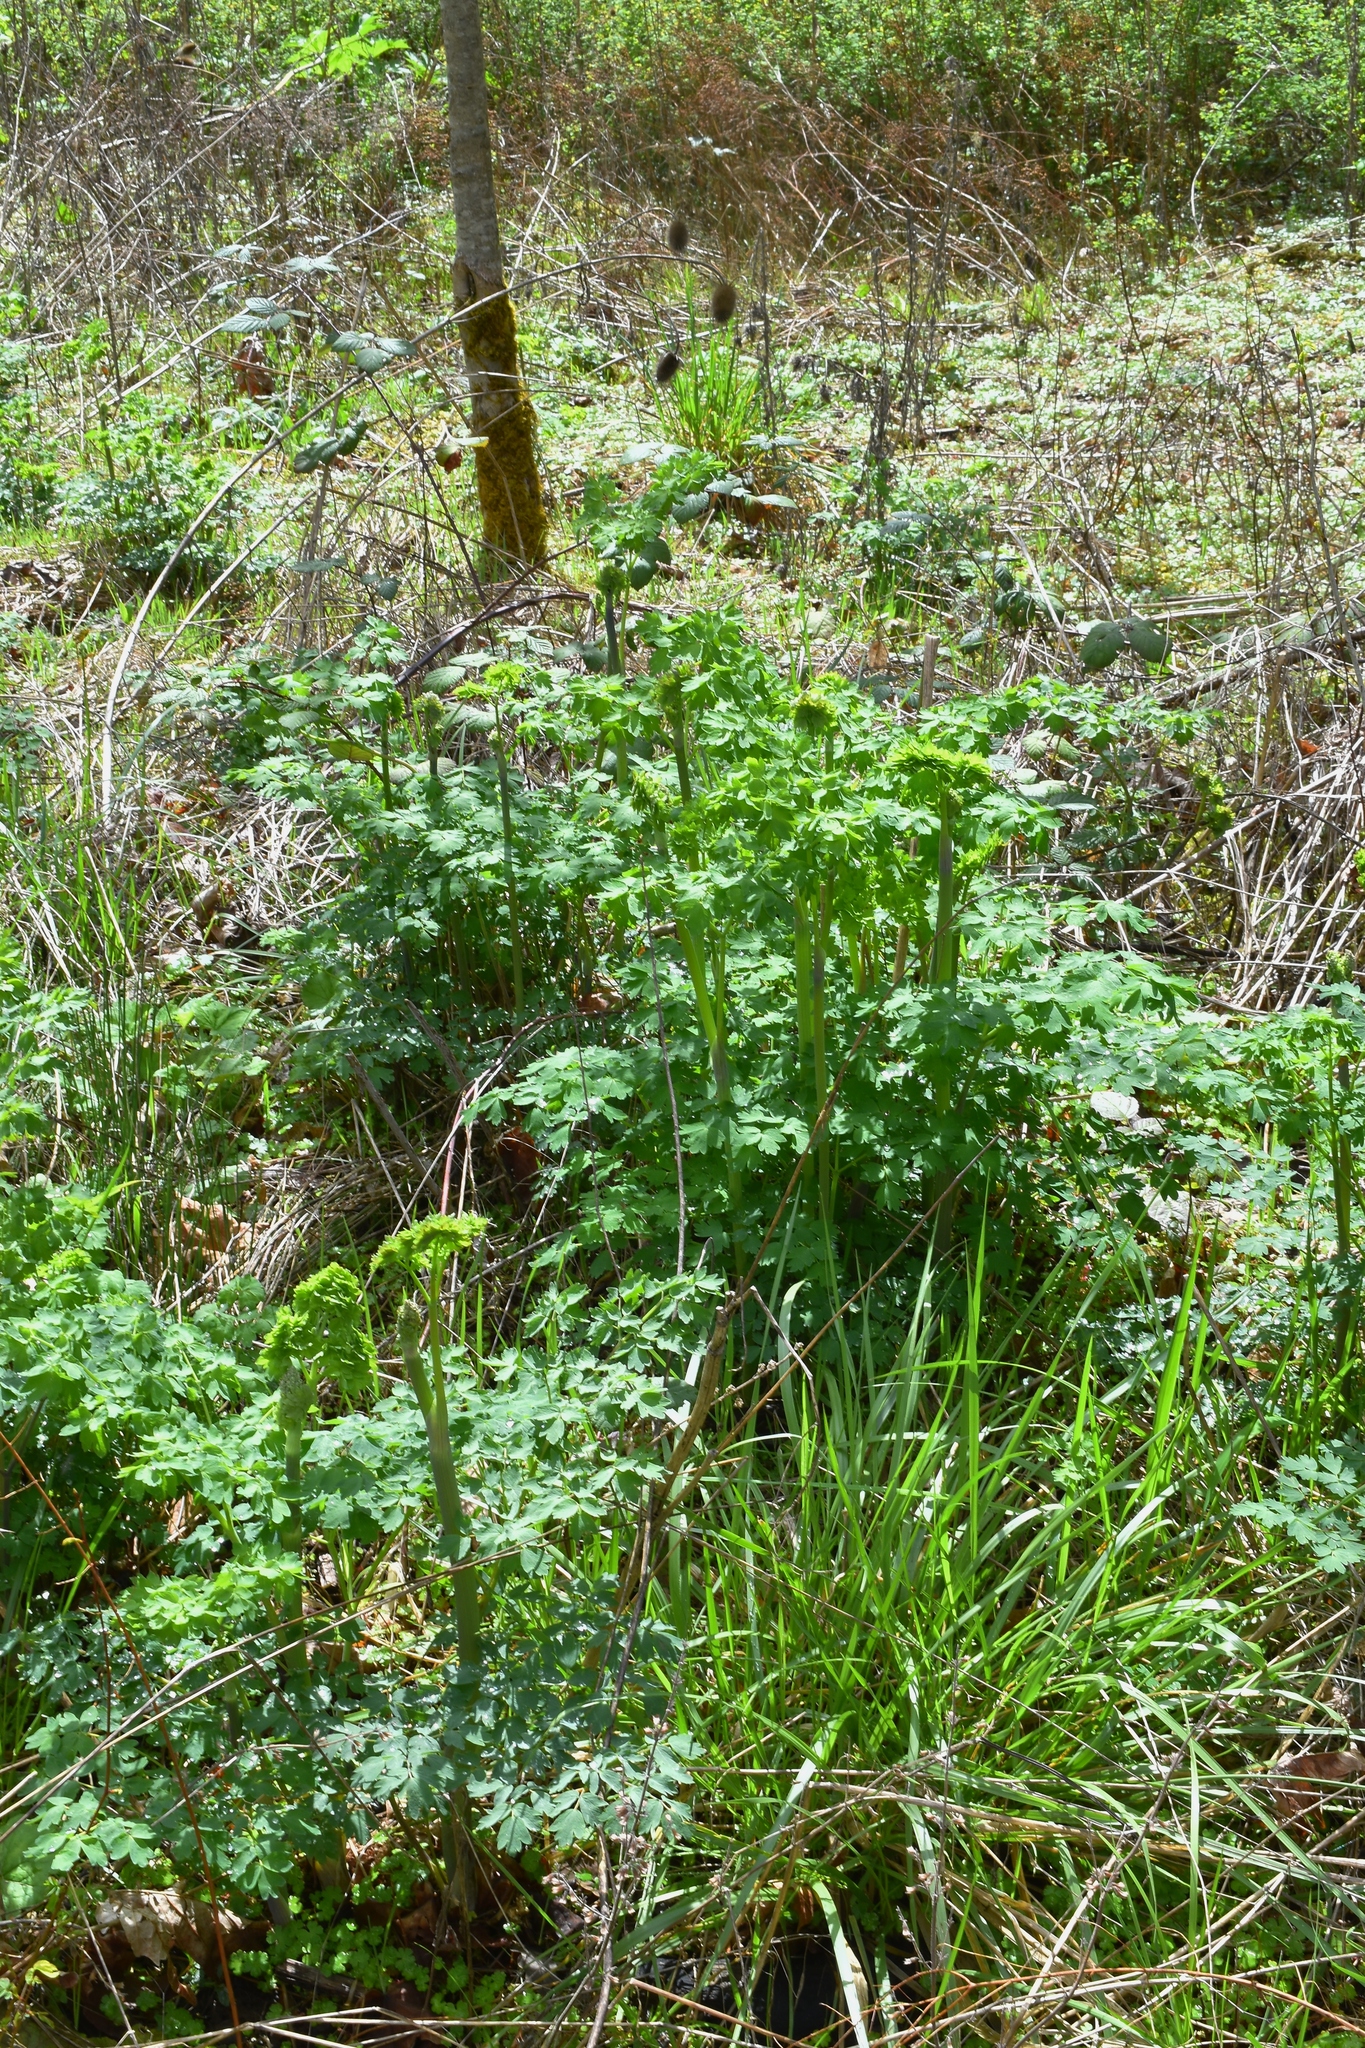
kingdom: Plantae
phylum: Tracheophyta
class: Magnoliopsida
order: Ranunculales
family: Ranunculaceae
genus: Thalictrum
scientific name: Thalictrum fendleri
